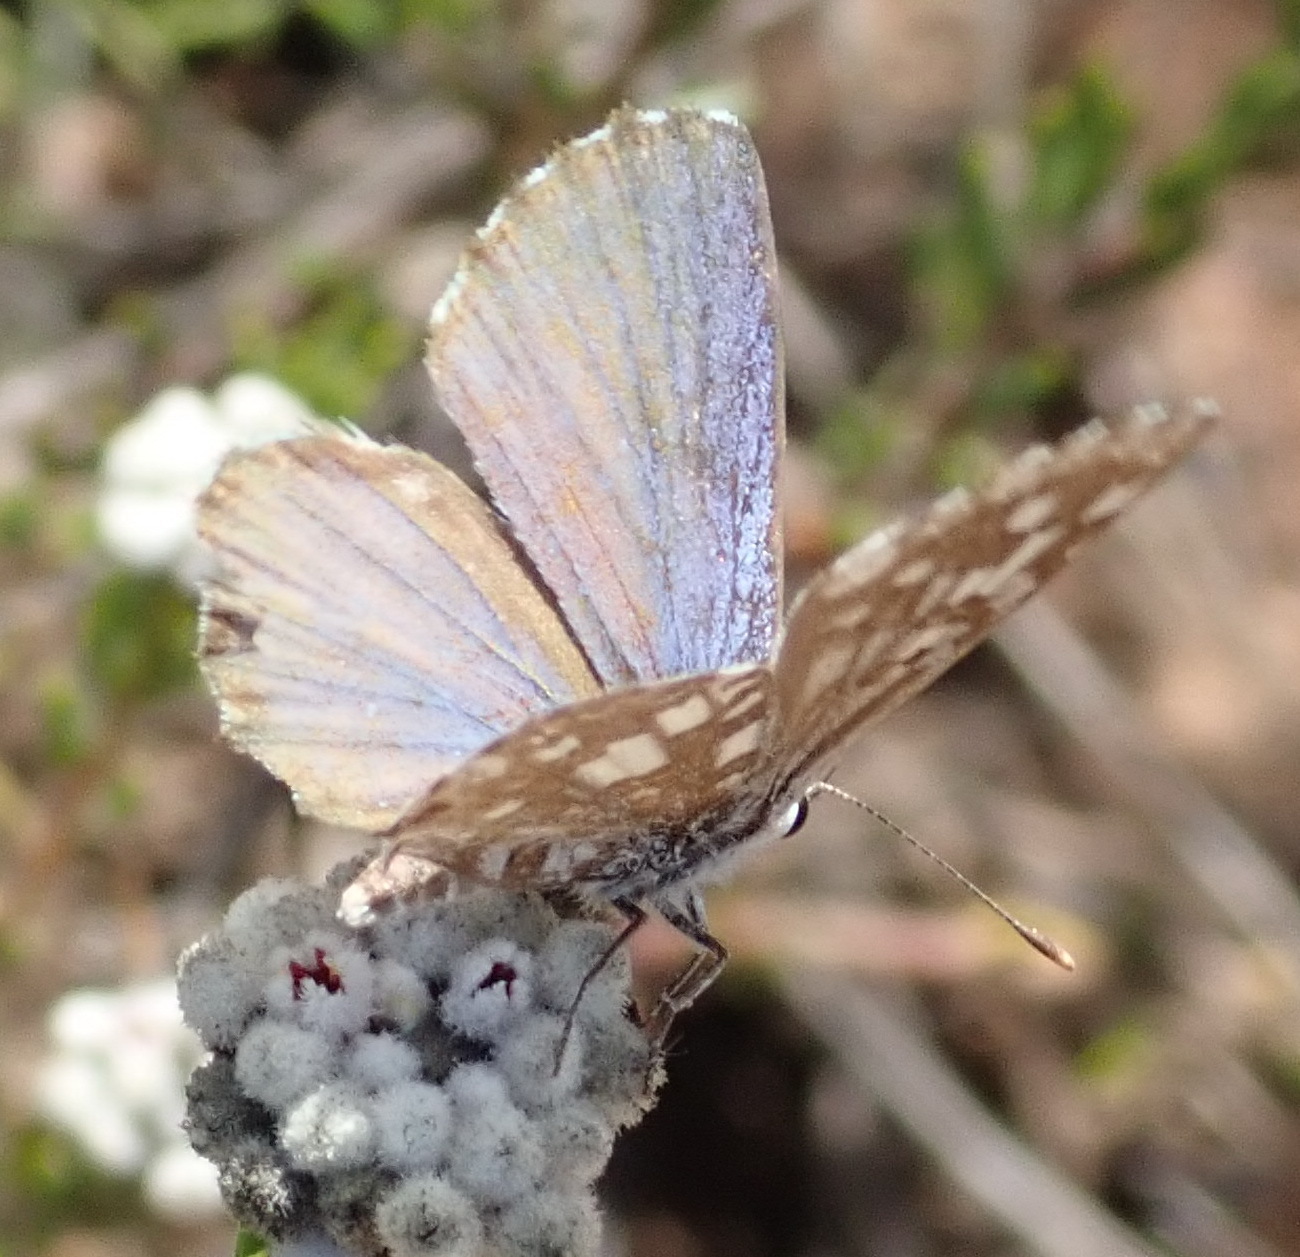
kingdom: Animalia
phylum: Arthropoda
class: Insecta
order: Lepidoptera
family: Lycaenidae
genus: Tarucus
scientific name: Tarucus thespis
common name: Vivid dotted blue
